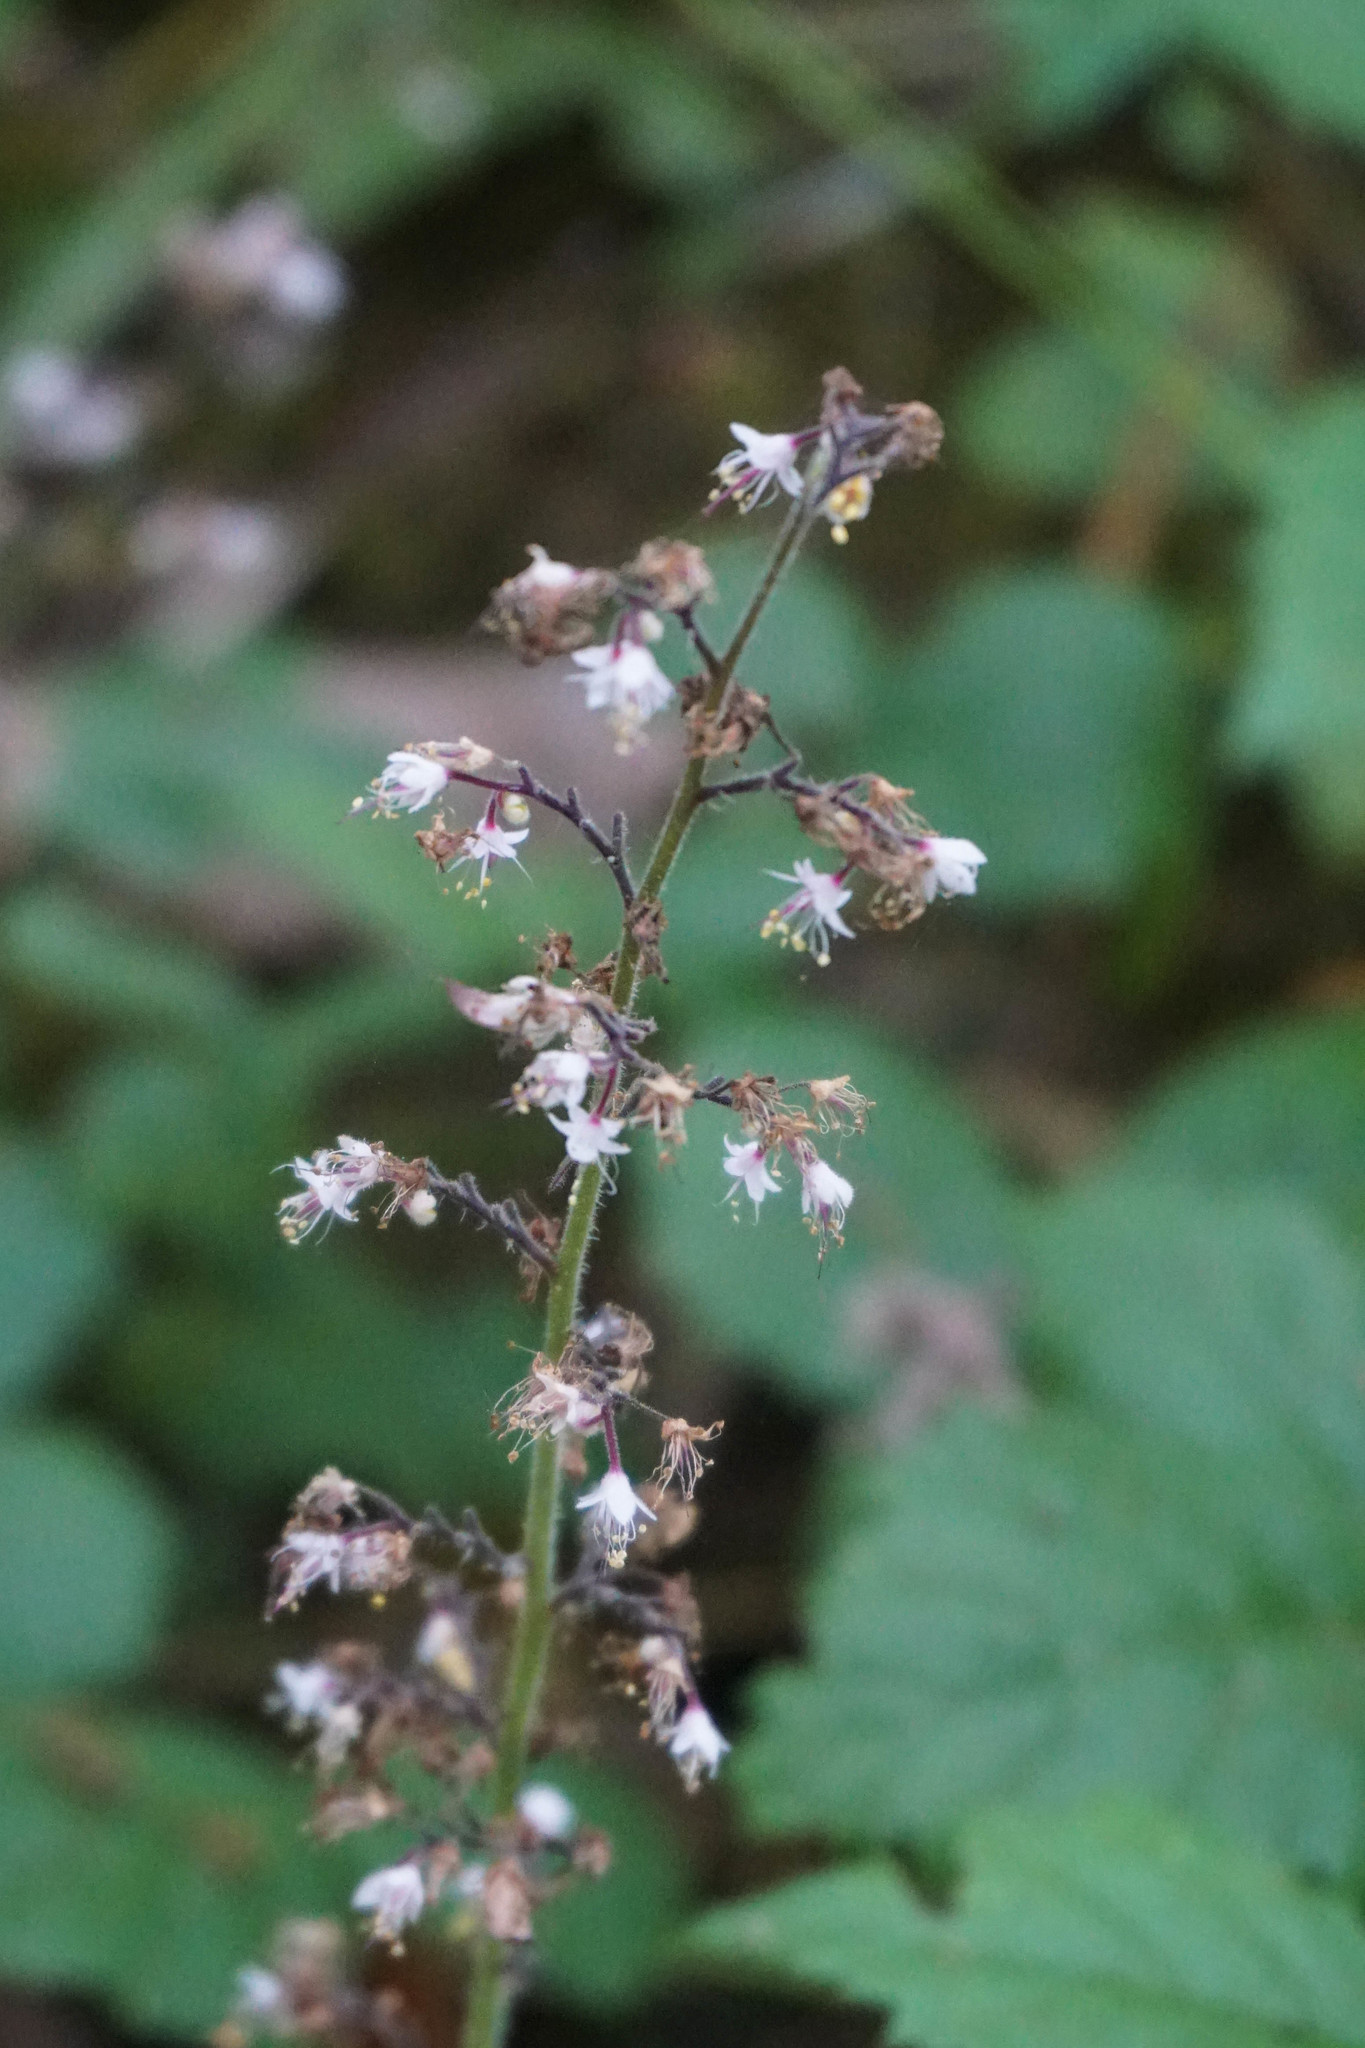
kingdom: Plantae
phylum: Tracheophyta
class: Magnoliopsida
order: Saxifragales
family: Saxifragaceae
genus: Tiarella
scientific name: Tiarella trifoliata
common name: Sugar-scoop
